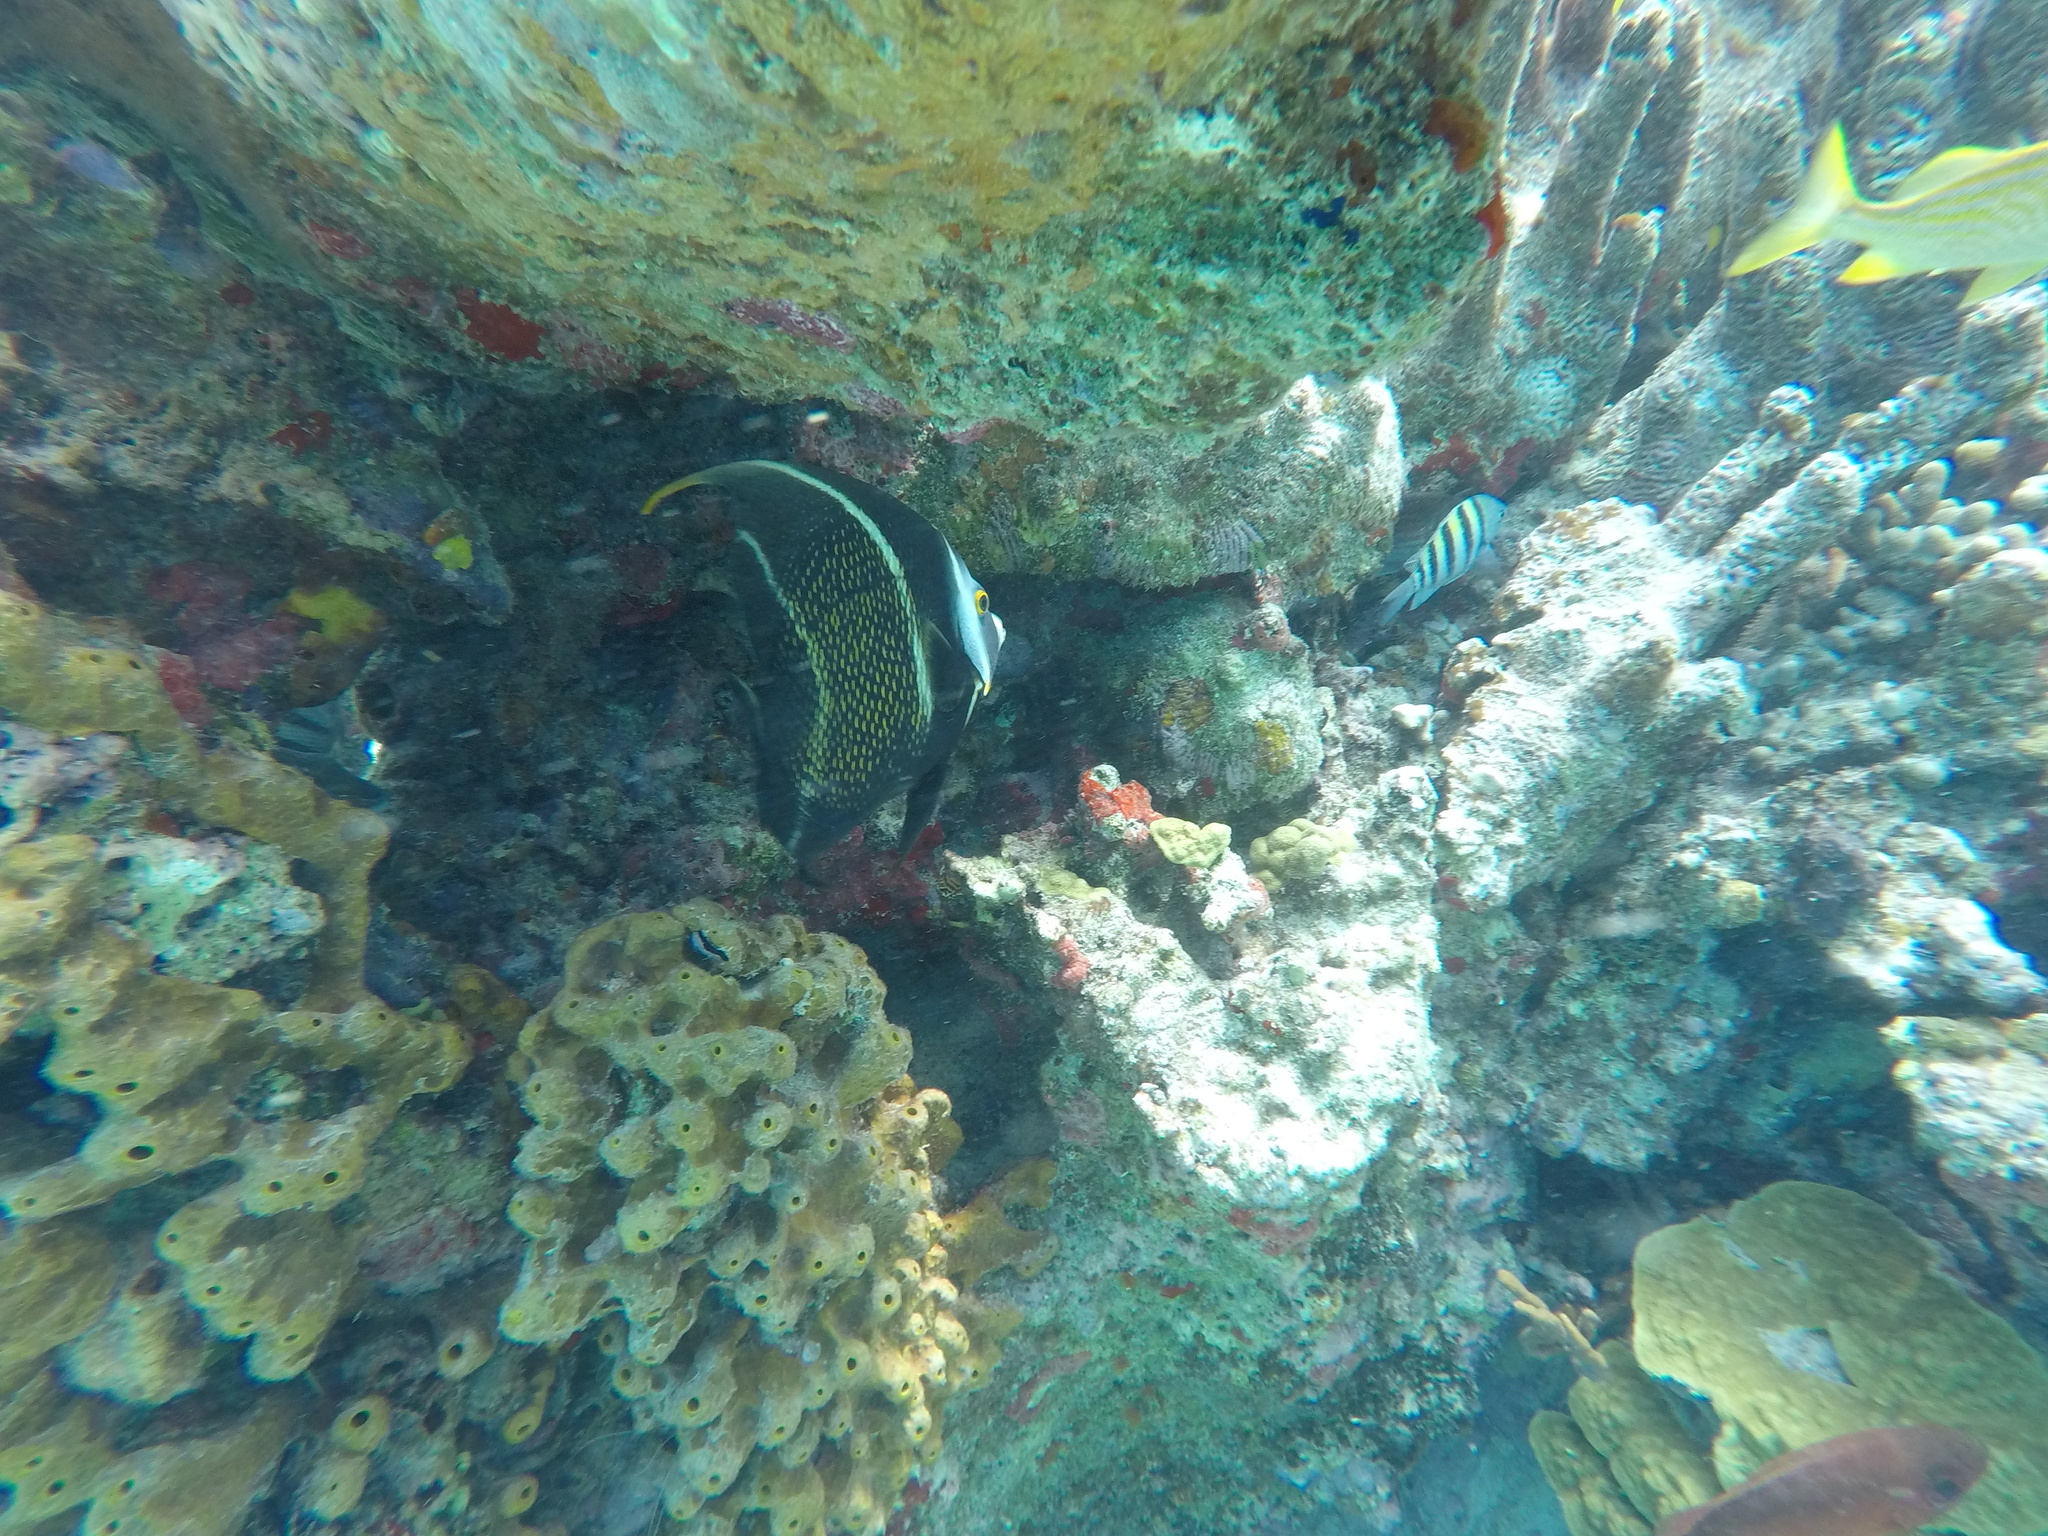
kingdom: Animalia
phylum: Chordata
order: Perciformes
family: Pomacanthidae
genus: Pomacanthus
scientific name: Pomacanthus paru
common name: French angelfish
